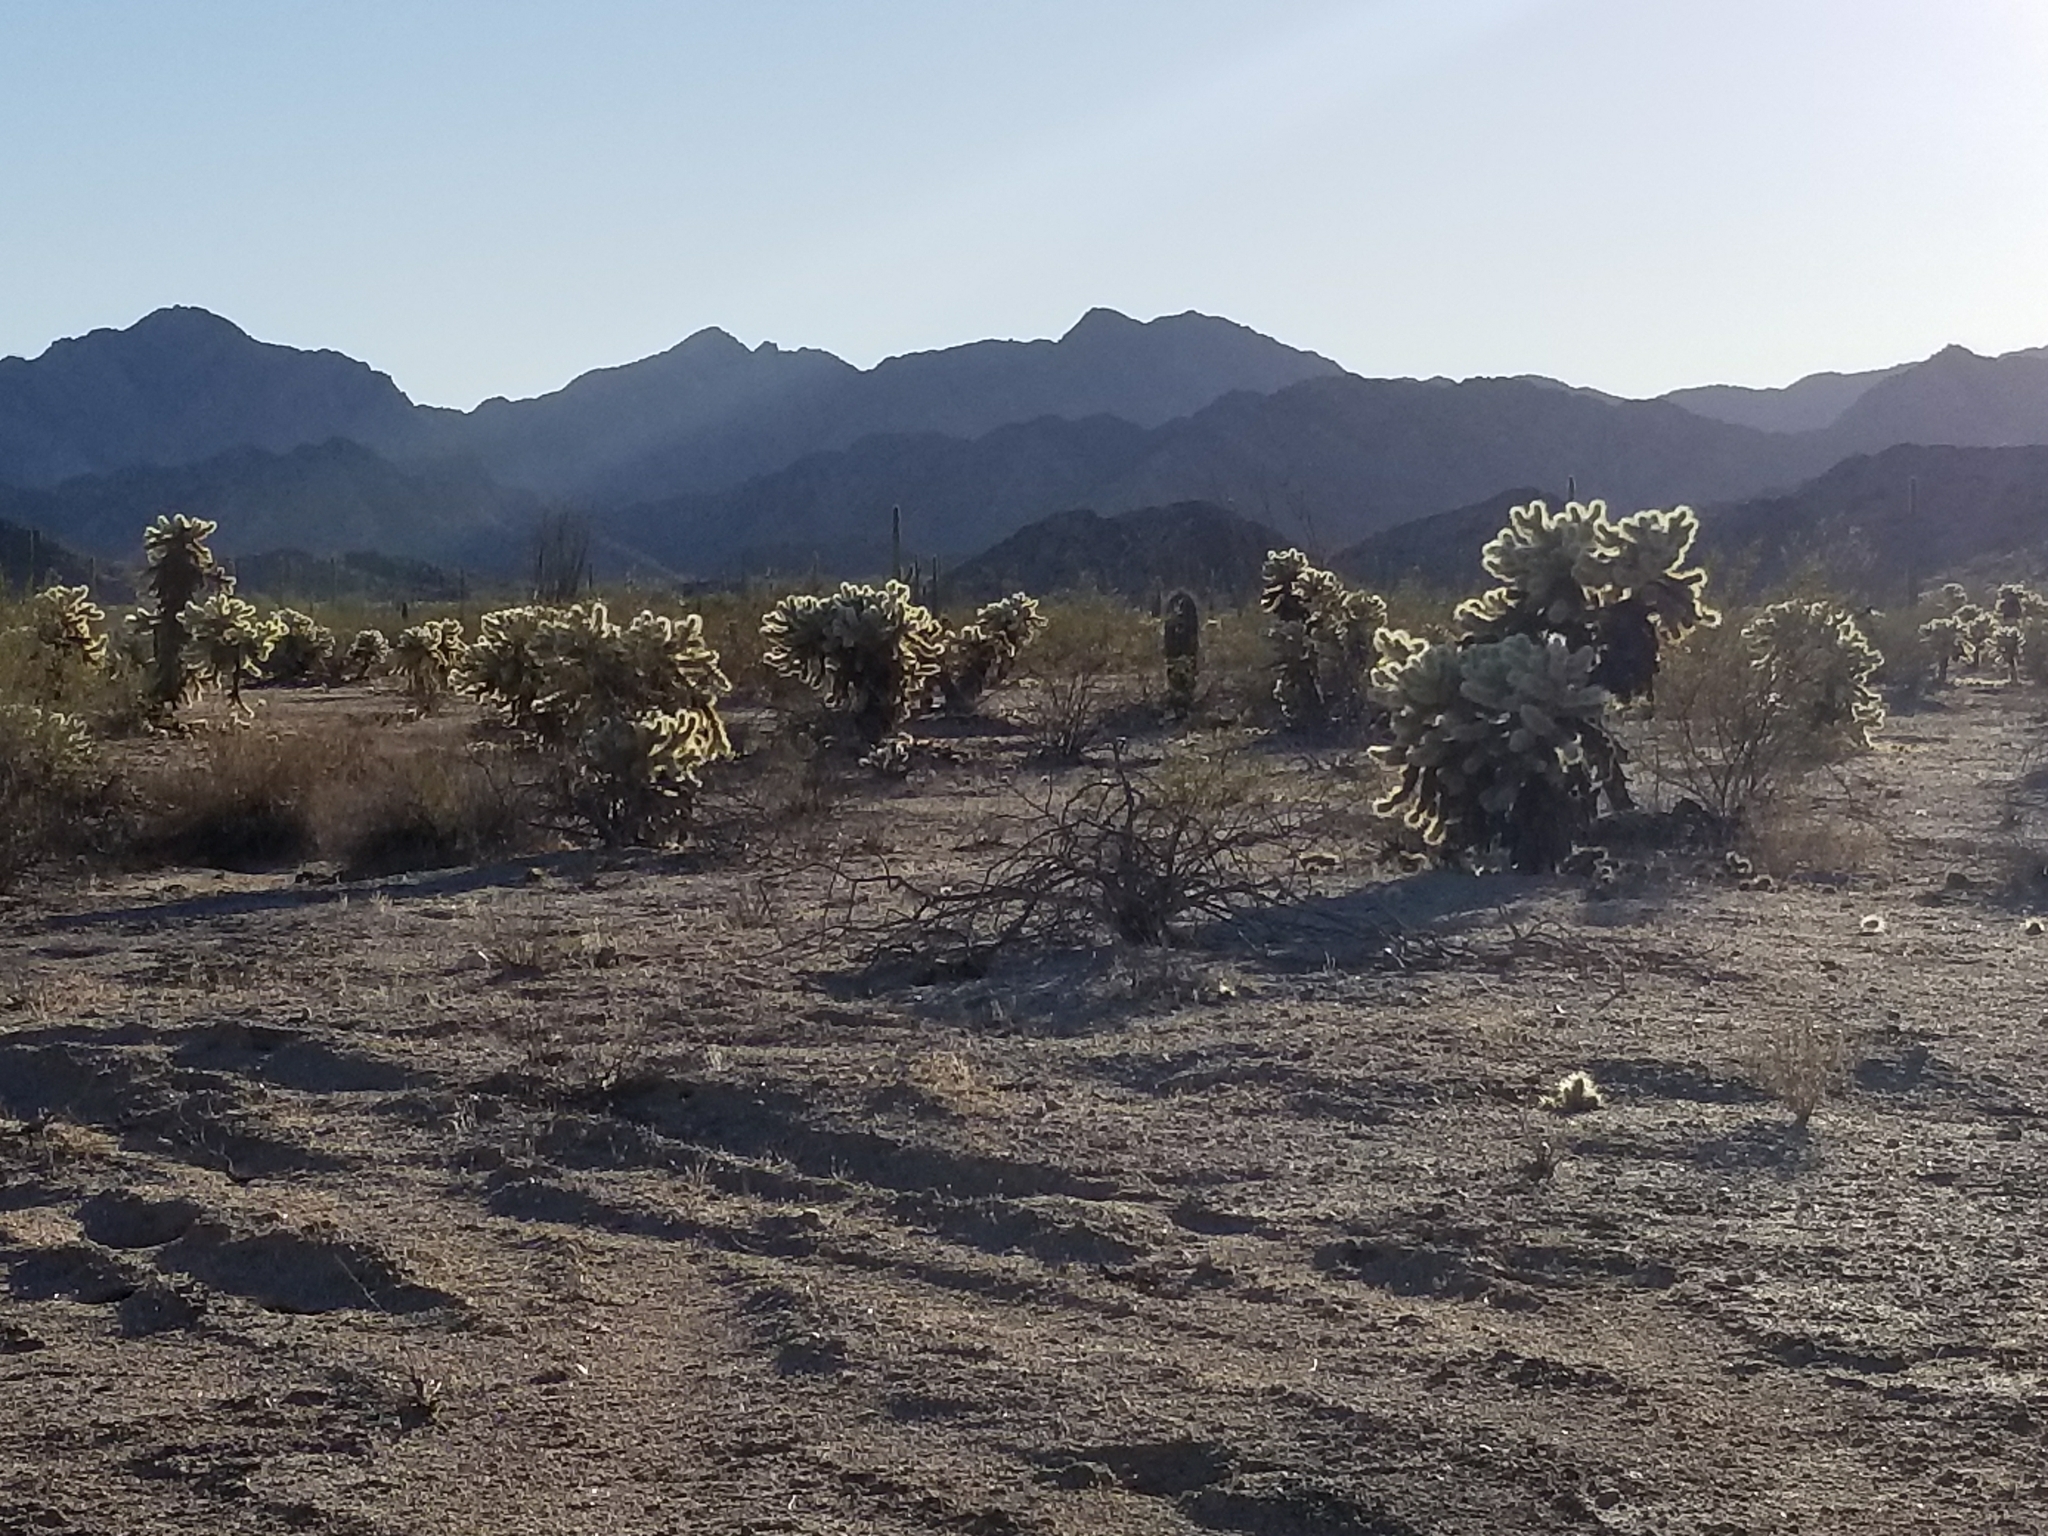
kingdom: Plantae
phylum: Tracheophyta
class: Magnoliopsida
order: Caryophyllales
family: Cactaceae
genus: Cylindropuntia
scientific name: Cylindropuntia fosbergii
